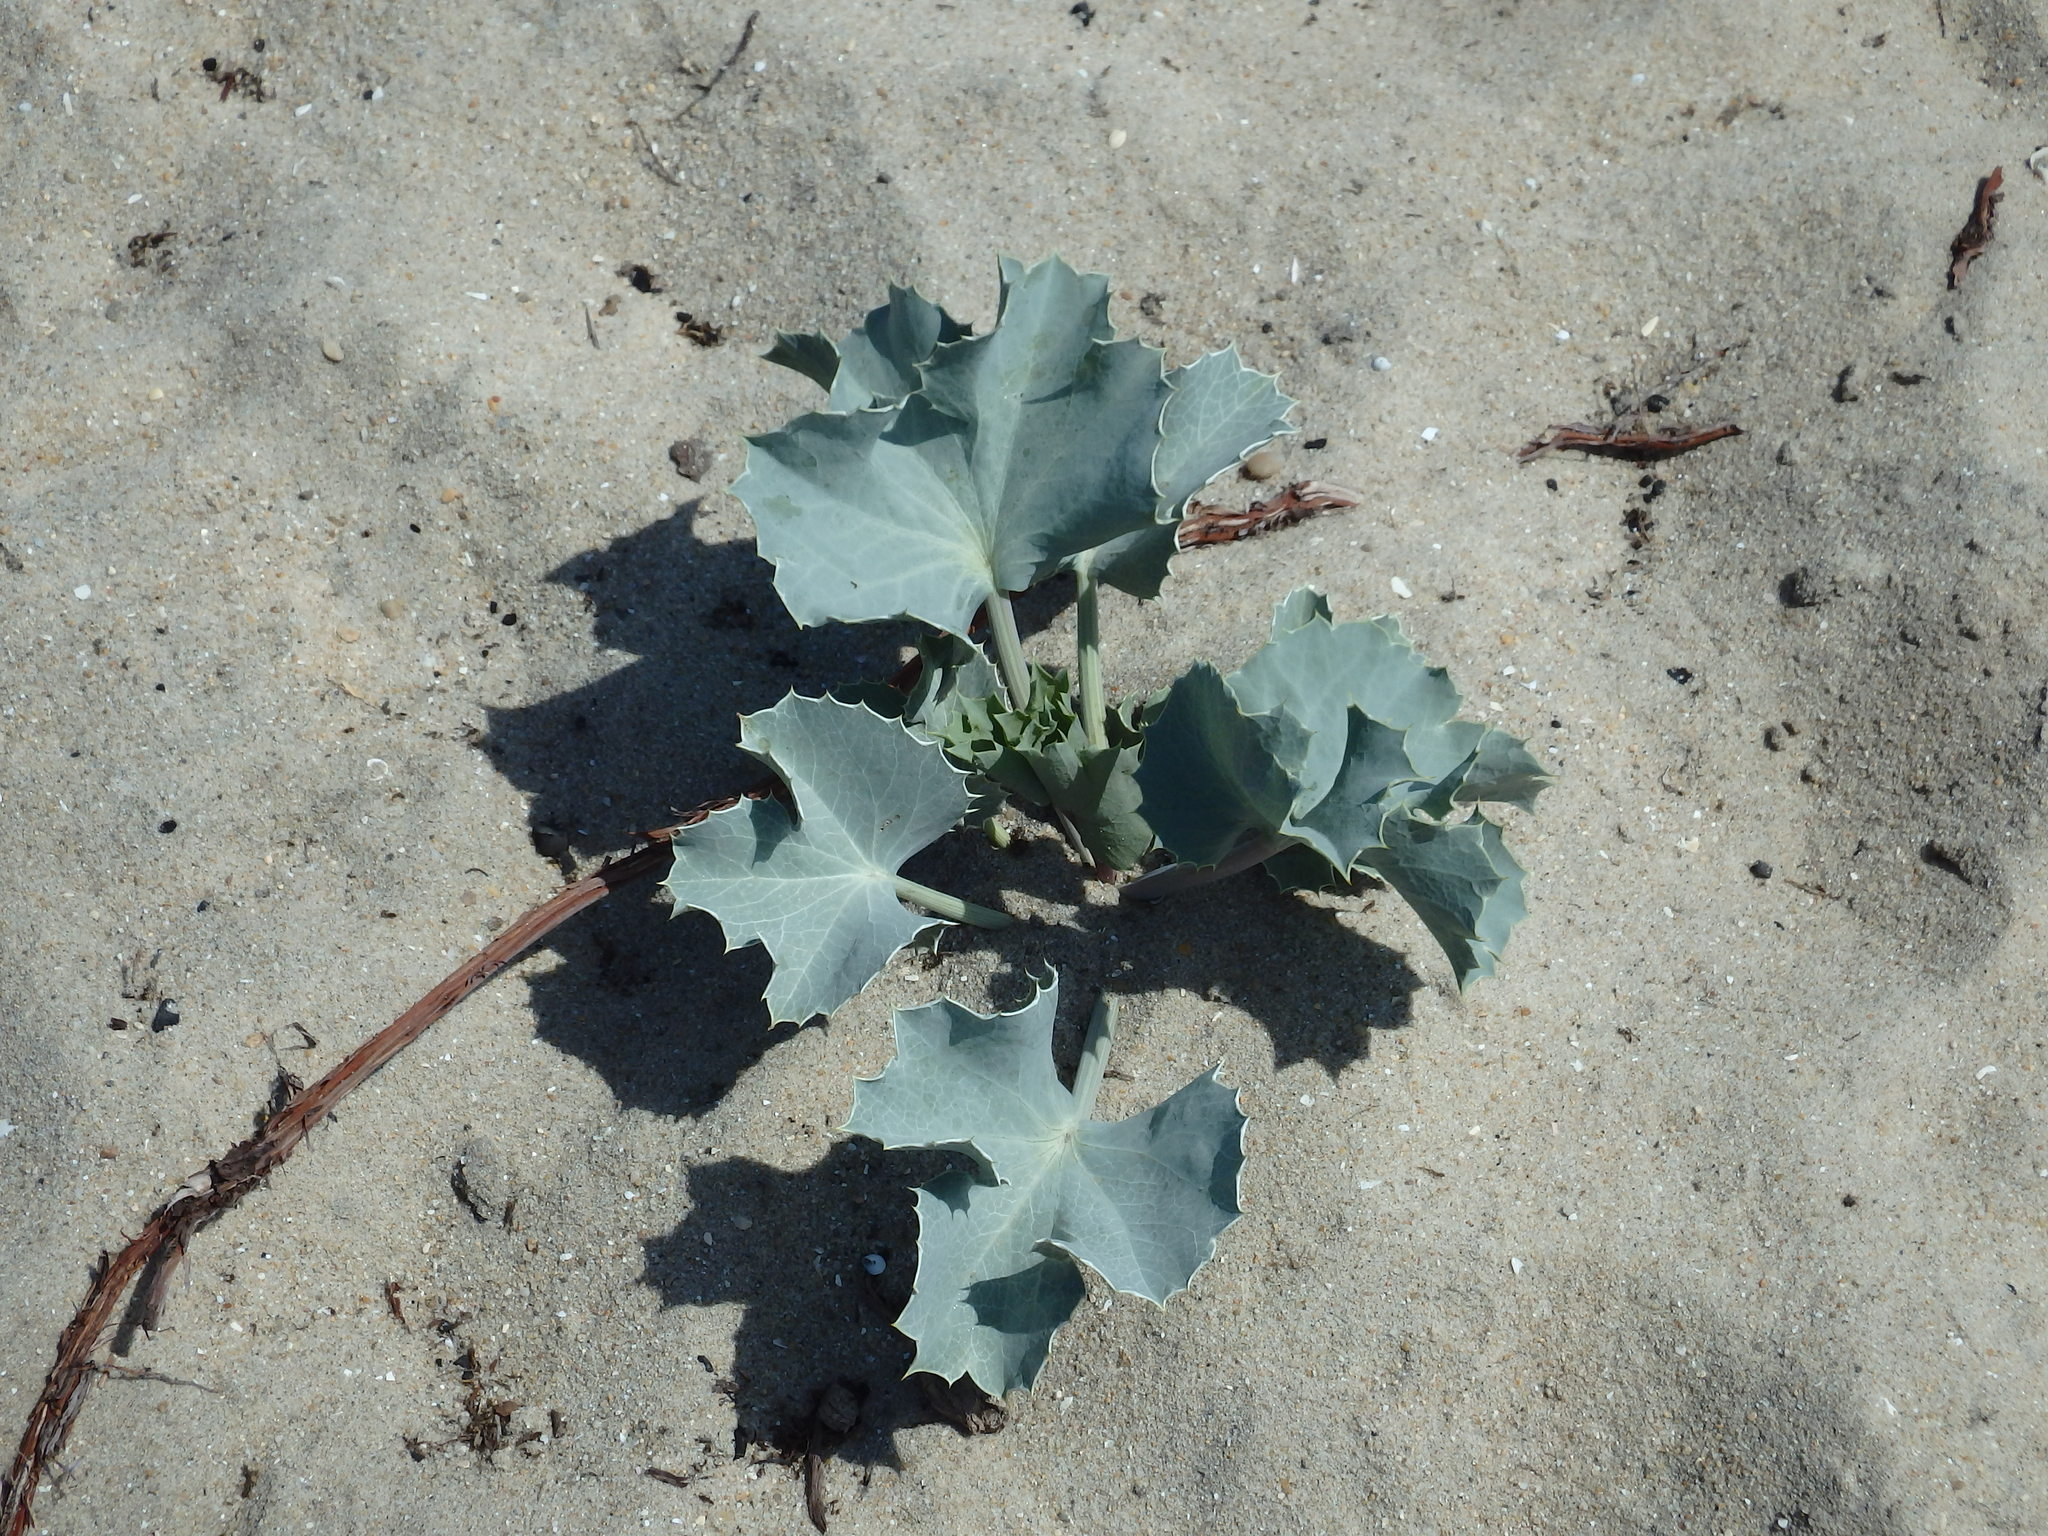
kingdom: Plantae
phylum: Tracheophyta
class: Magnoliopsida
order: Apiales
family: Apiaceae
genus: Eryngium
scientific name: Eryngium maritimum
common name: Sea-holly
